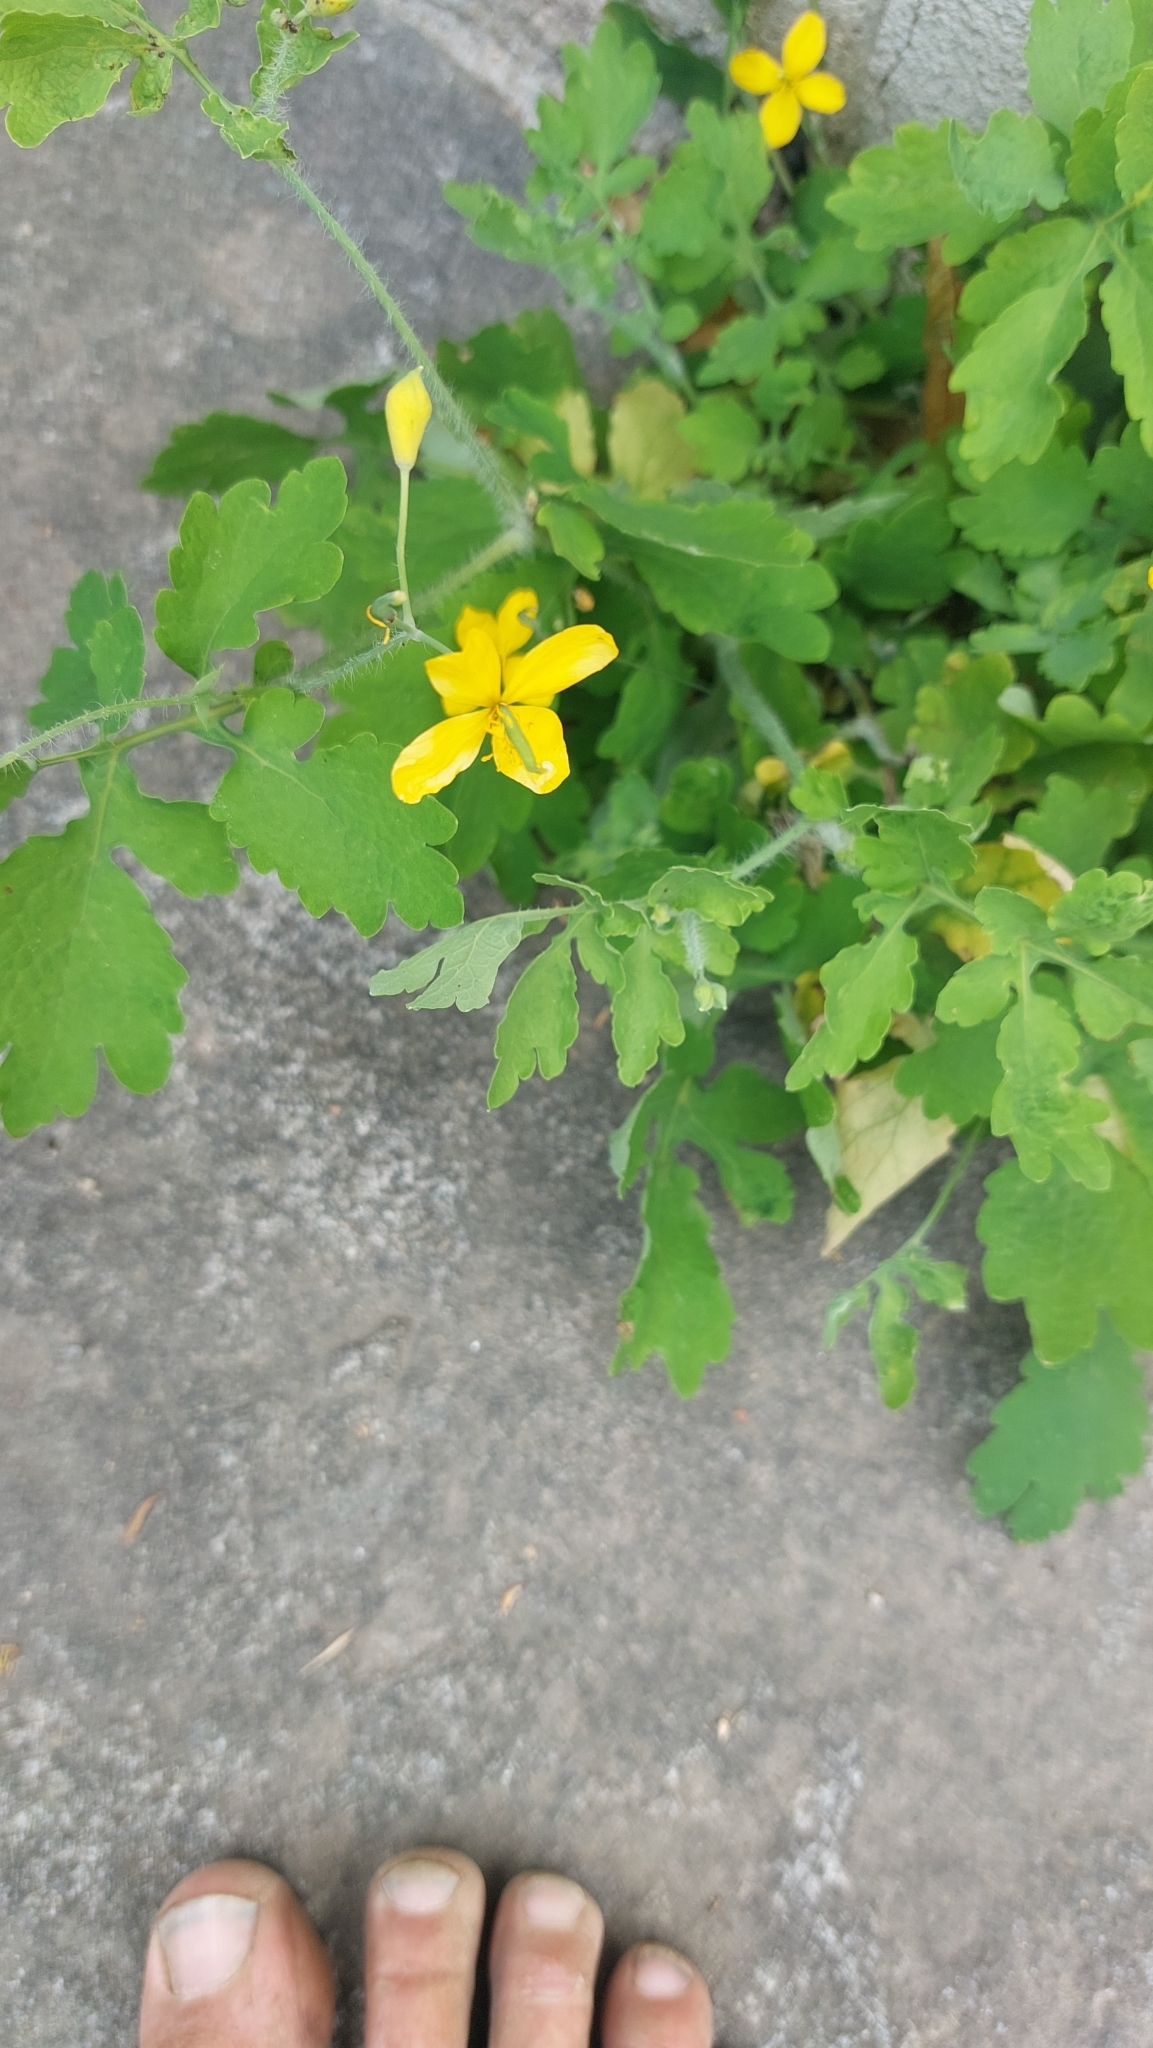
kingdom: Plantae
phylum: Tracheophyta
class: Magnoliopsida
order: Ranunculales
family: Papaveraceae
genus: Chelidonium
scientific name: Chelidonium majus
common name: Greater celandine
